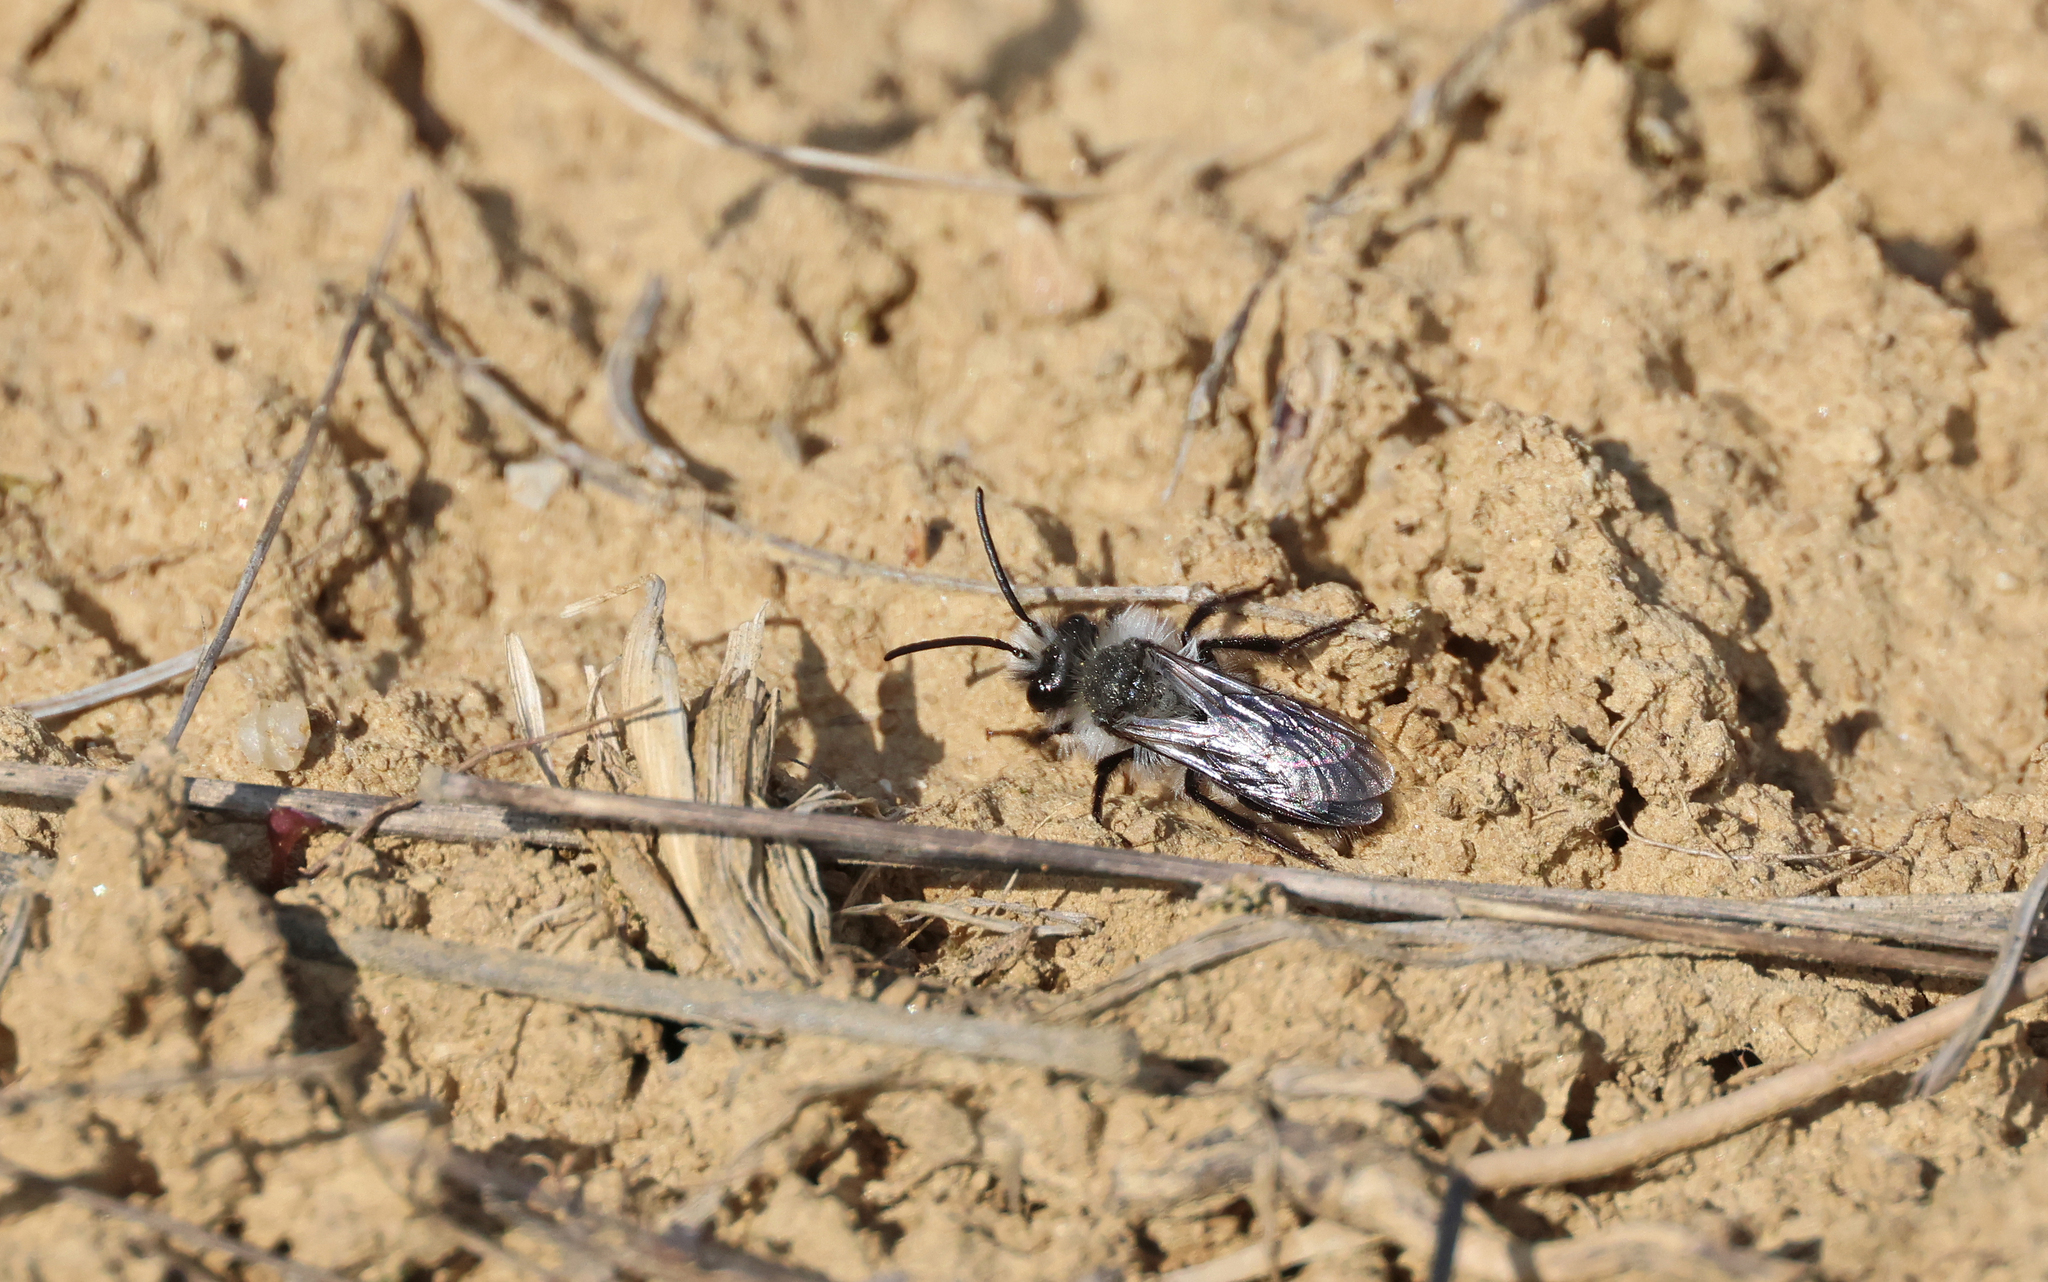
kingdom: Animalia
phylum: Arthropoda
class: Insecta
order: Hymenoptera
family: Andrenidae
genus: Andrena
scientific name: Andrena cineraria
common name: Ashy mining bee
